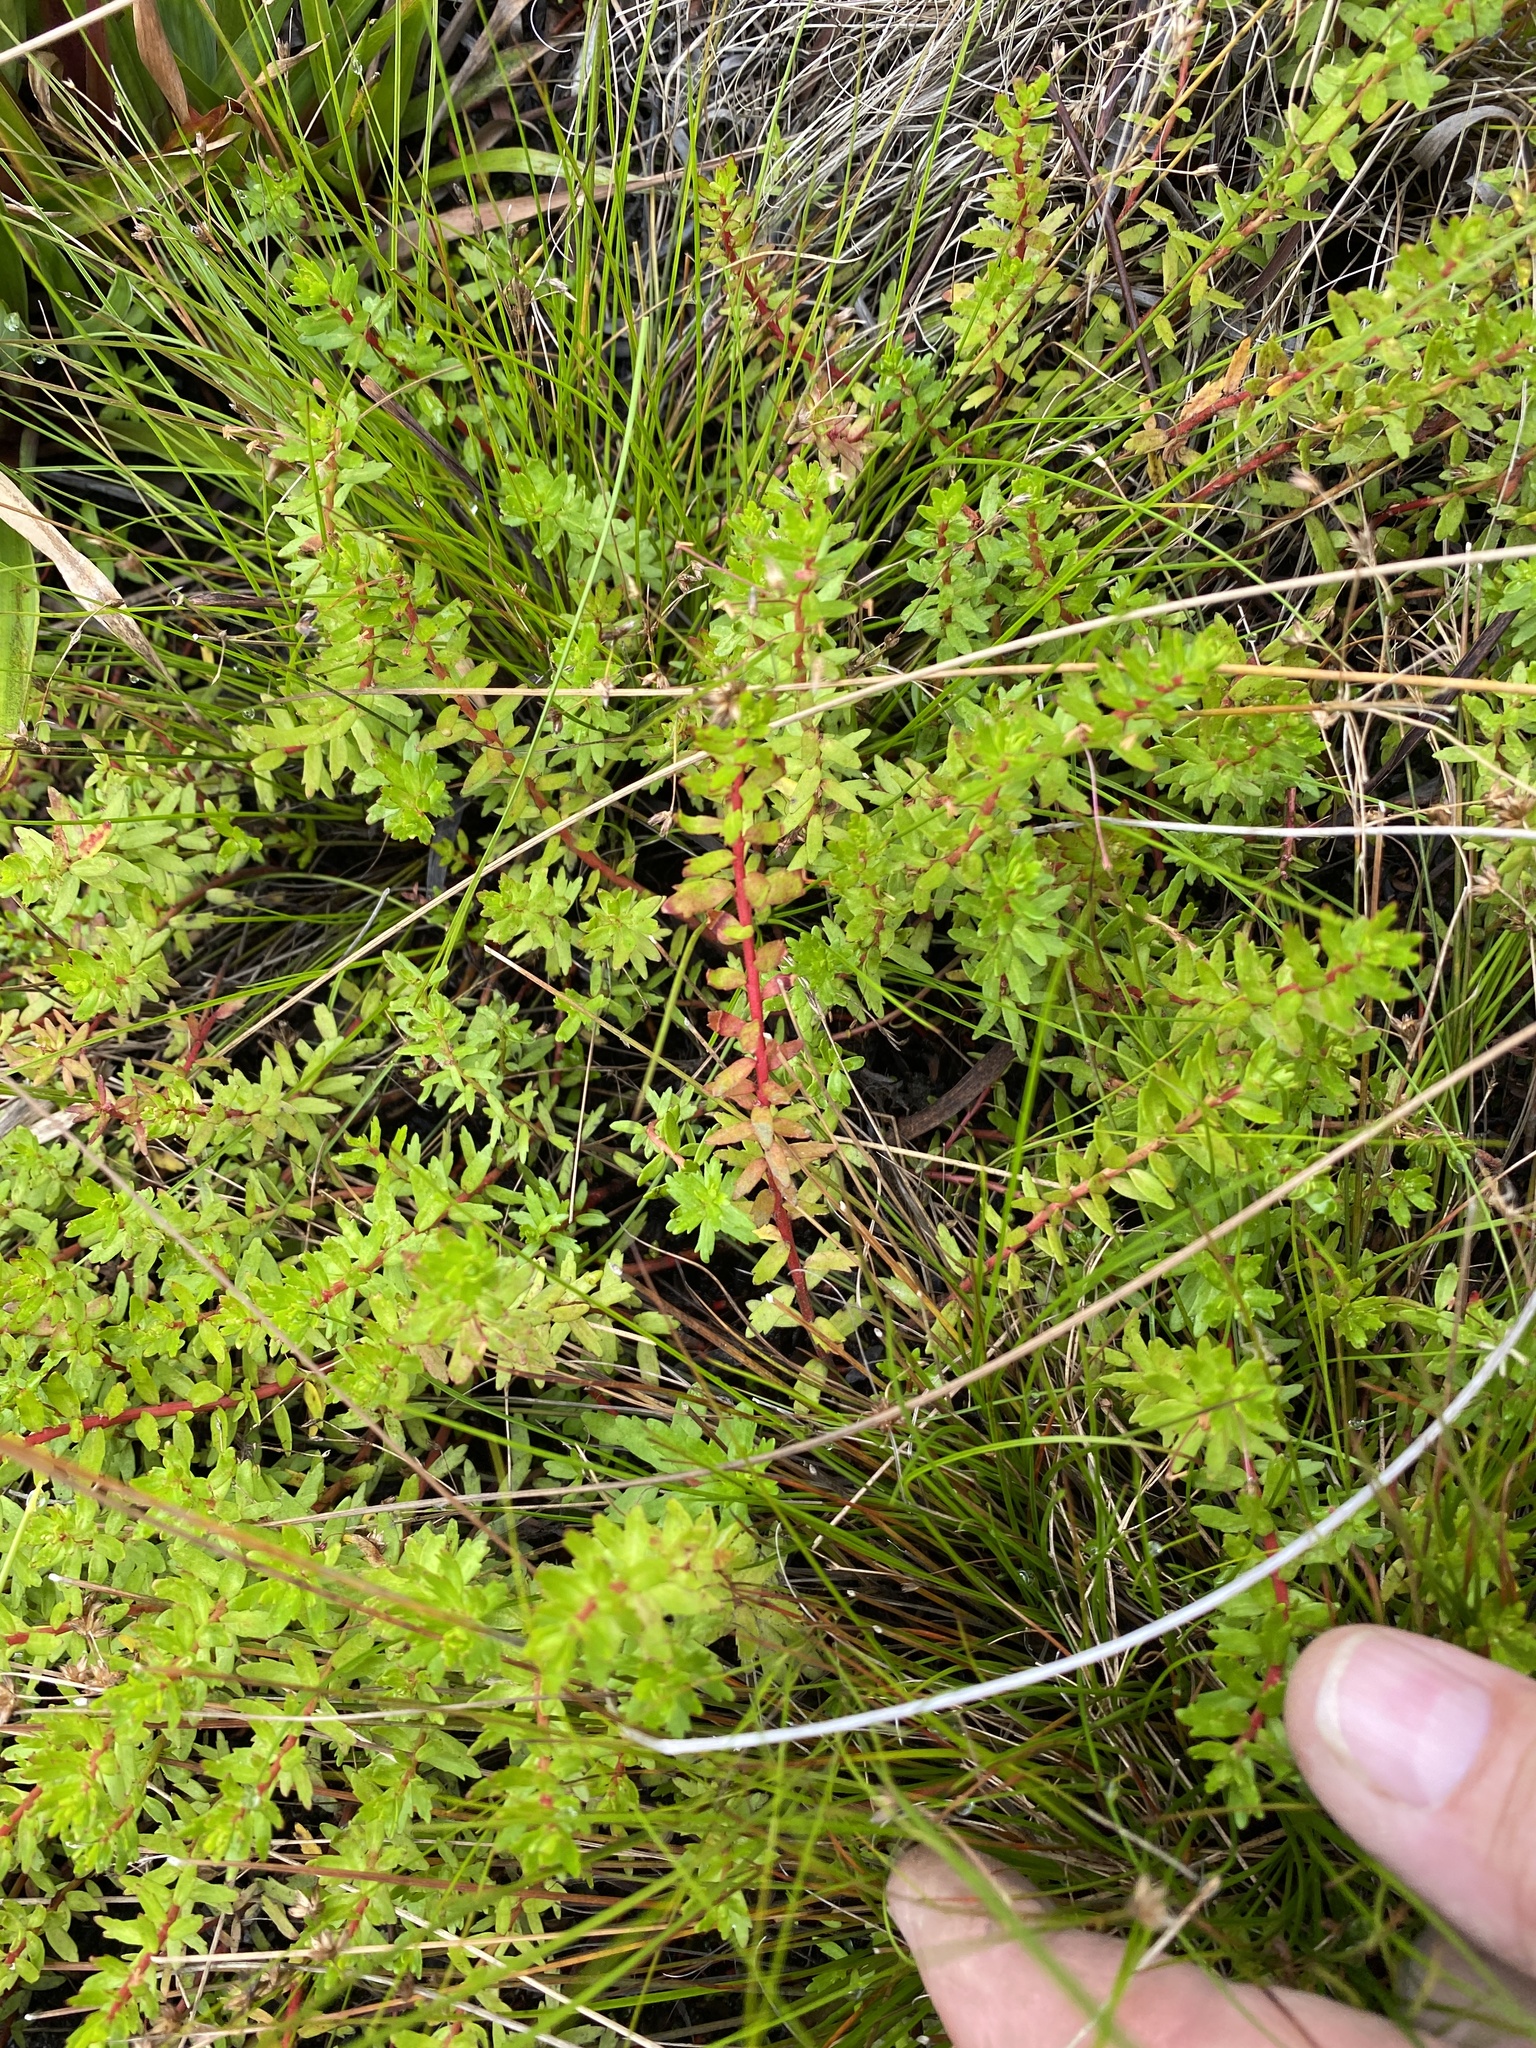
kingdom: Plantae
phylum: Tracheophyta
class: Magnoliopsida
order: Saxifragales
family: Haloragaceae
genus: Laurembergia
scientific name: Laurembergia repens
